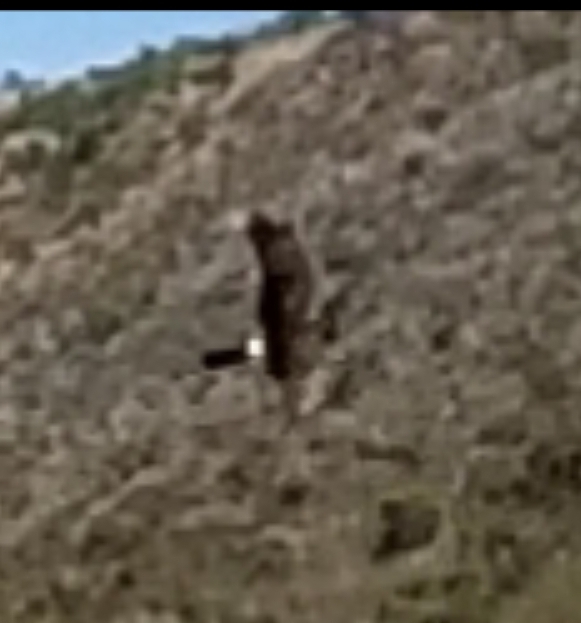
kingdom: Animalia
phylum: Chordata
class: Aves
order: Accipitriformes
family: Accipitridae
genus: Circus
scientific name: Circus cyaneus
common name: Hen harrier
